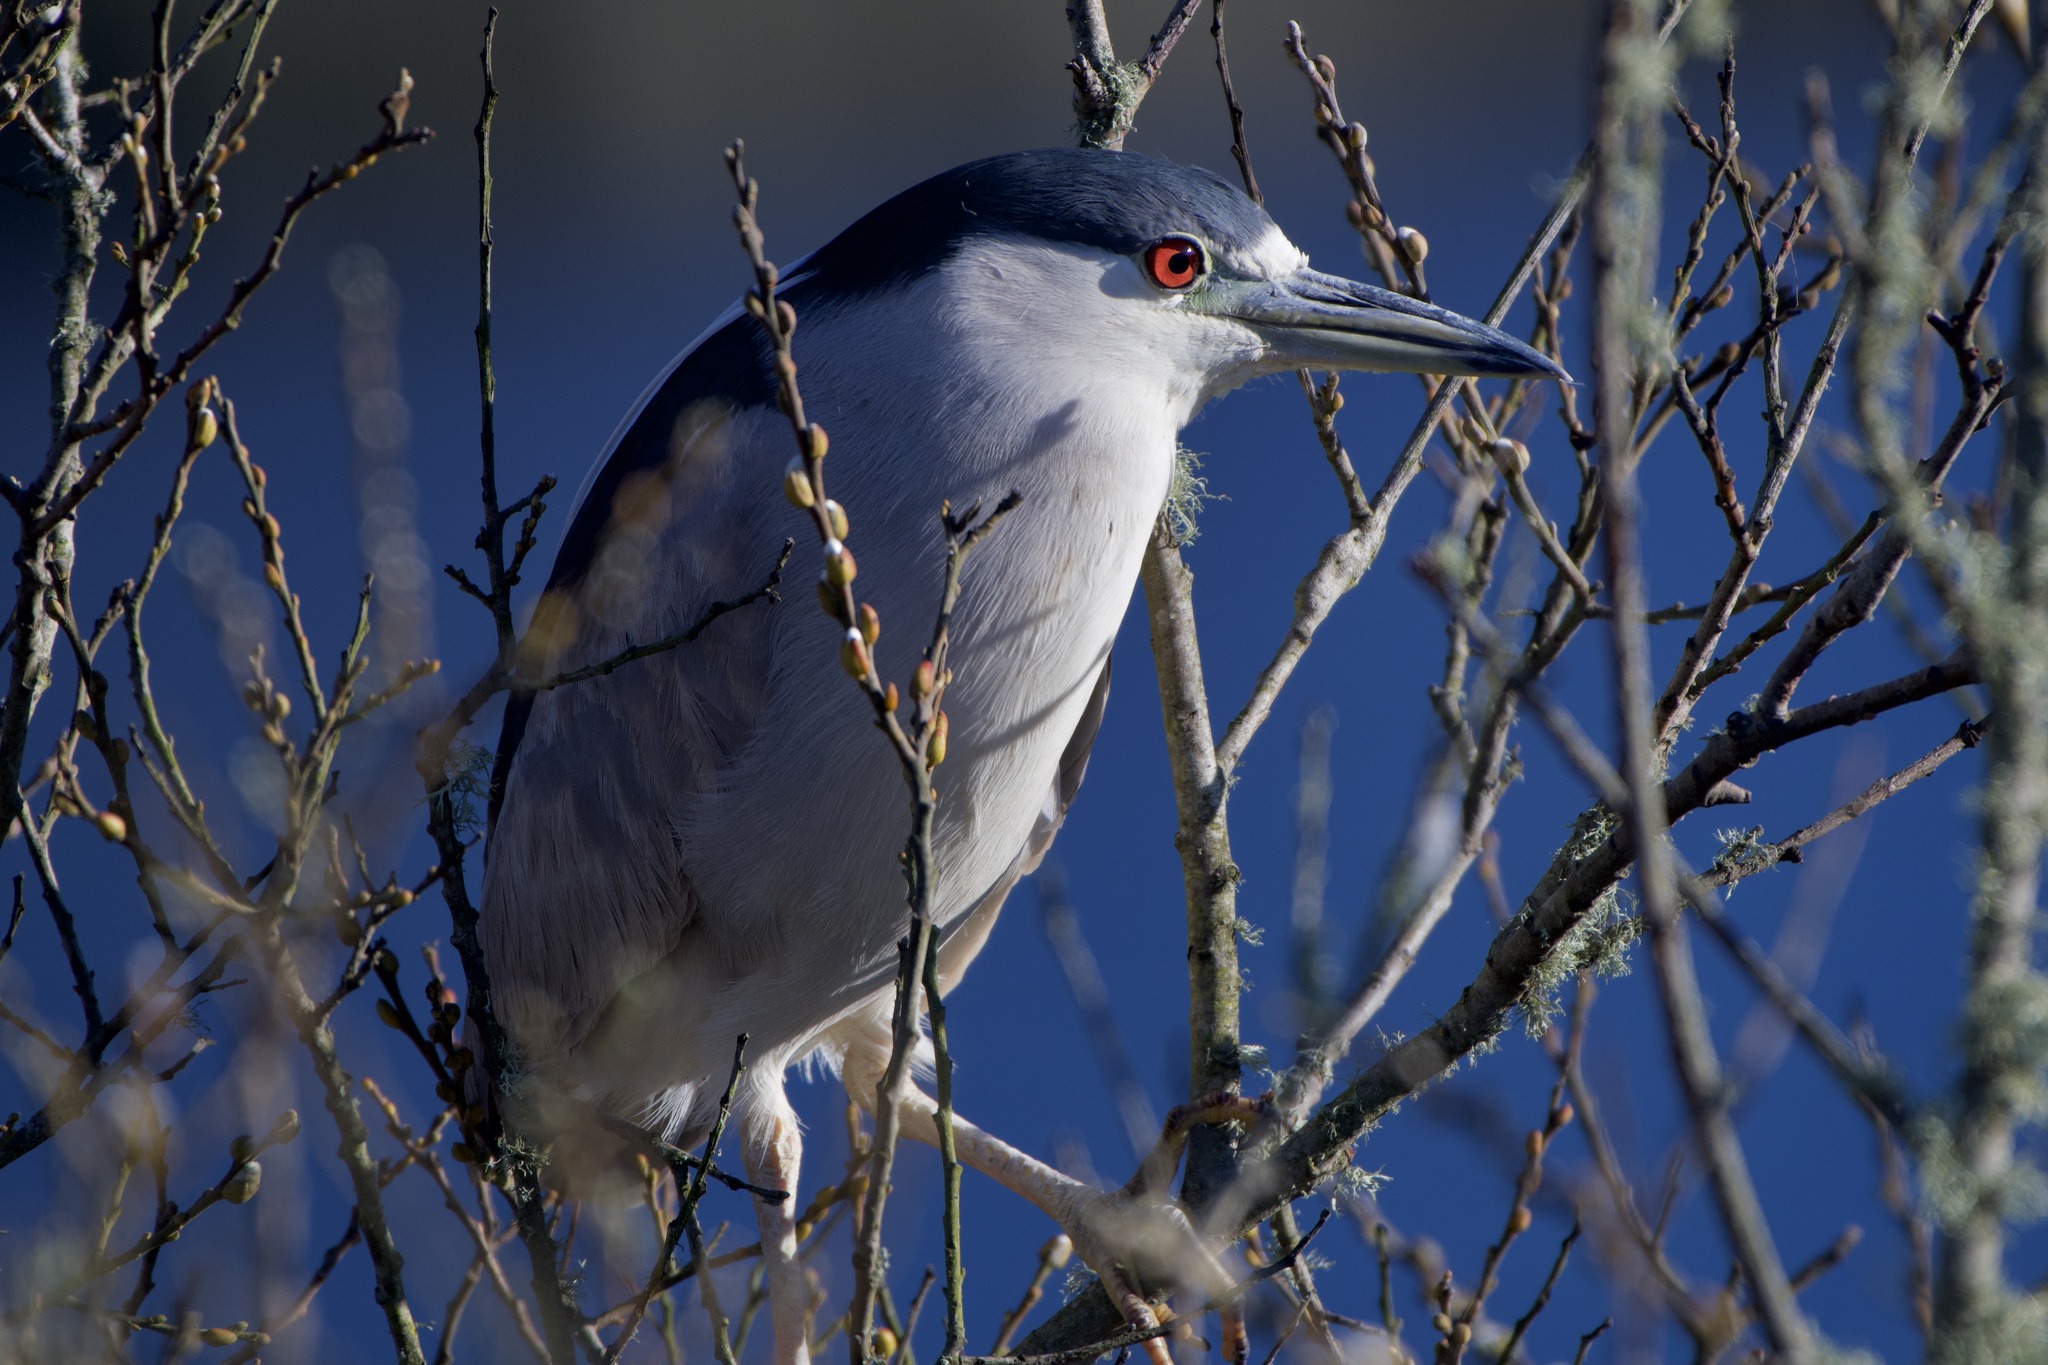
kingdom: Animalia
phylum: Chordata
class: Aves
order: Pelecaniformes
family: Ardeidae
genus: Nycticorax
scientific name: Nycticorax nycticorax
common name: Black-crowned night heron
